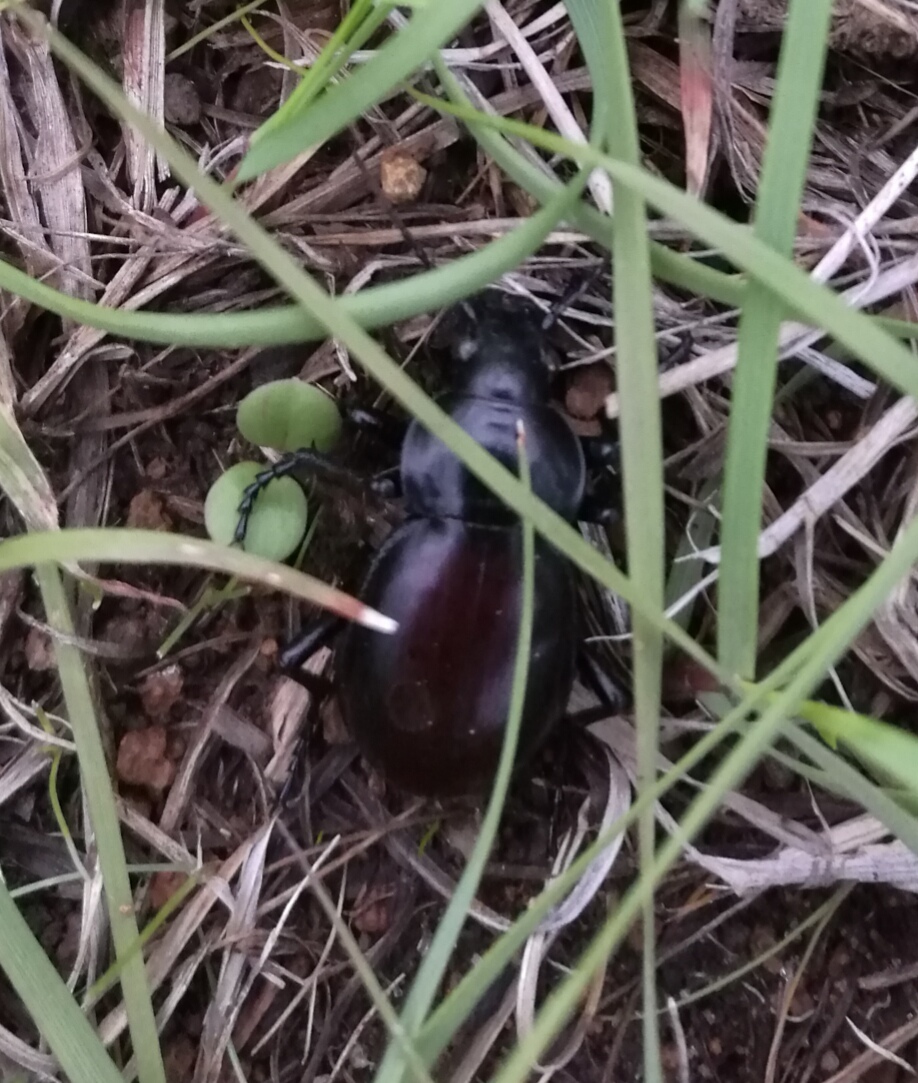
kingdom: Animalia
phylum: Arthropoda
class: Insecta
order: Coleoptera
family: Carabidae
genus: Calosoma
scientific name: Calosoma laeve
